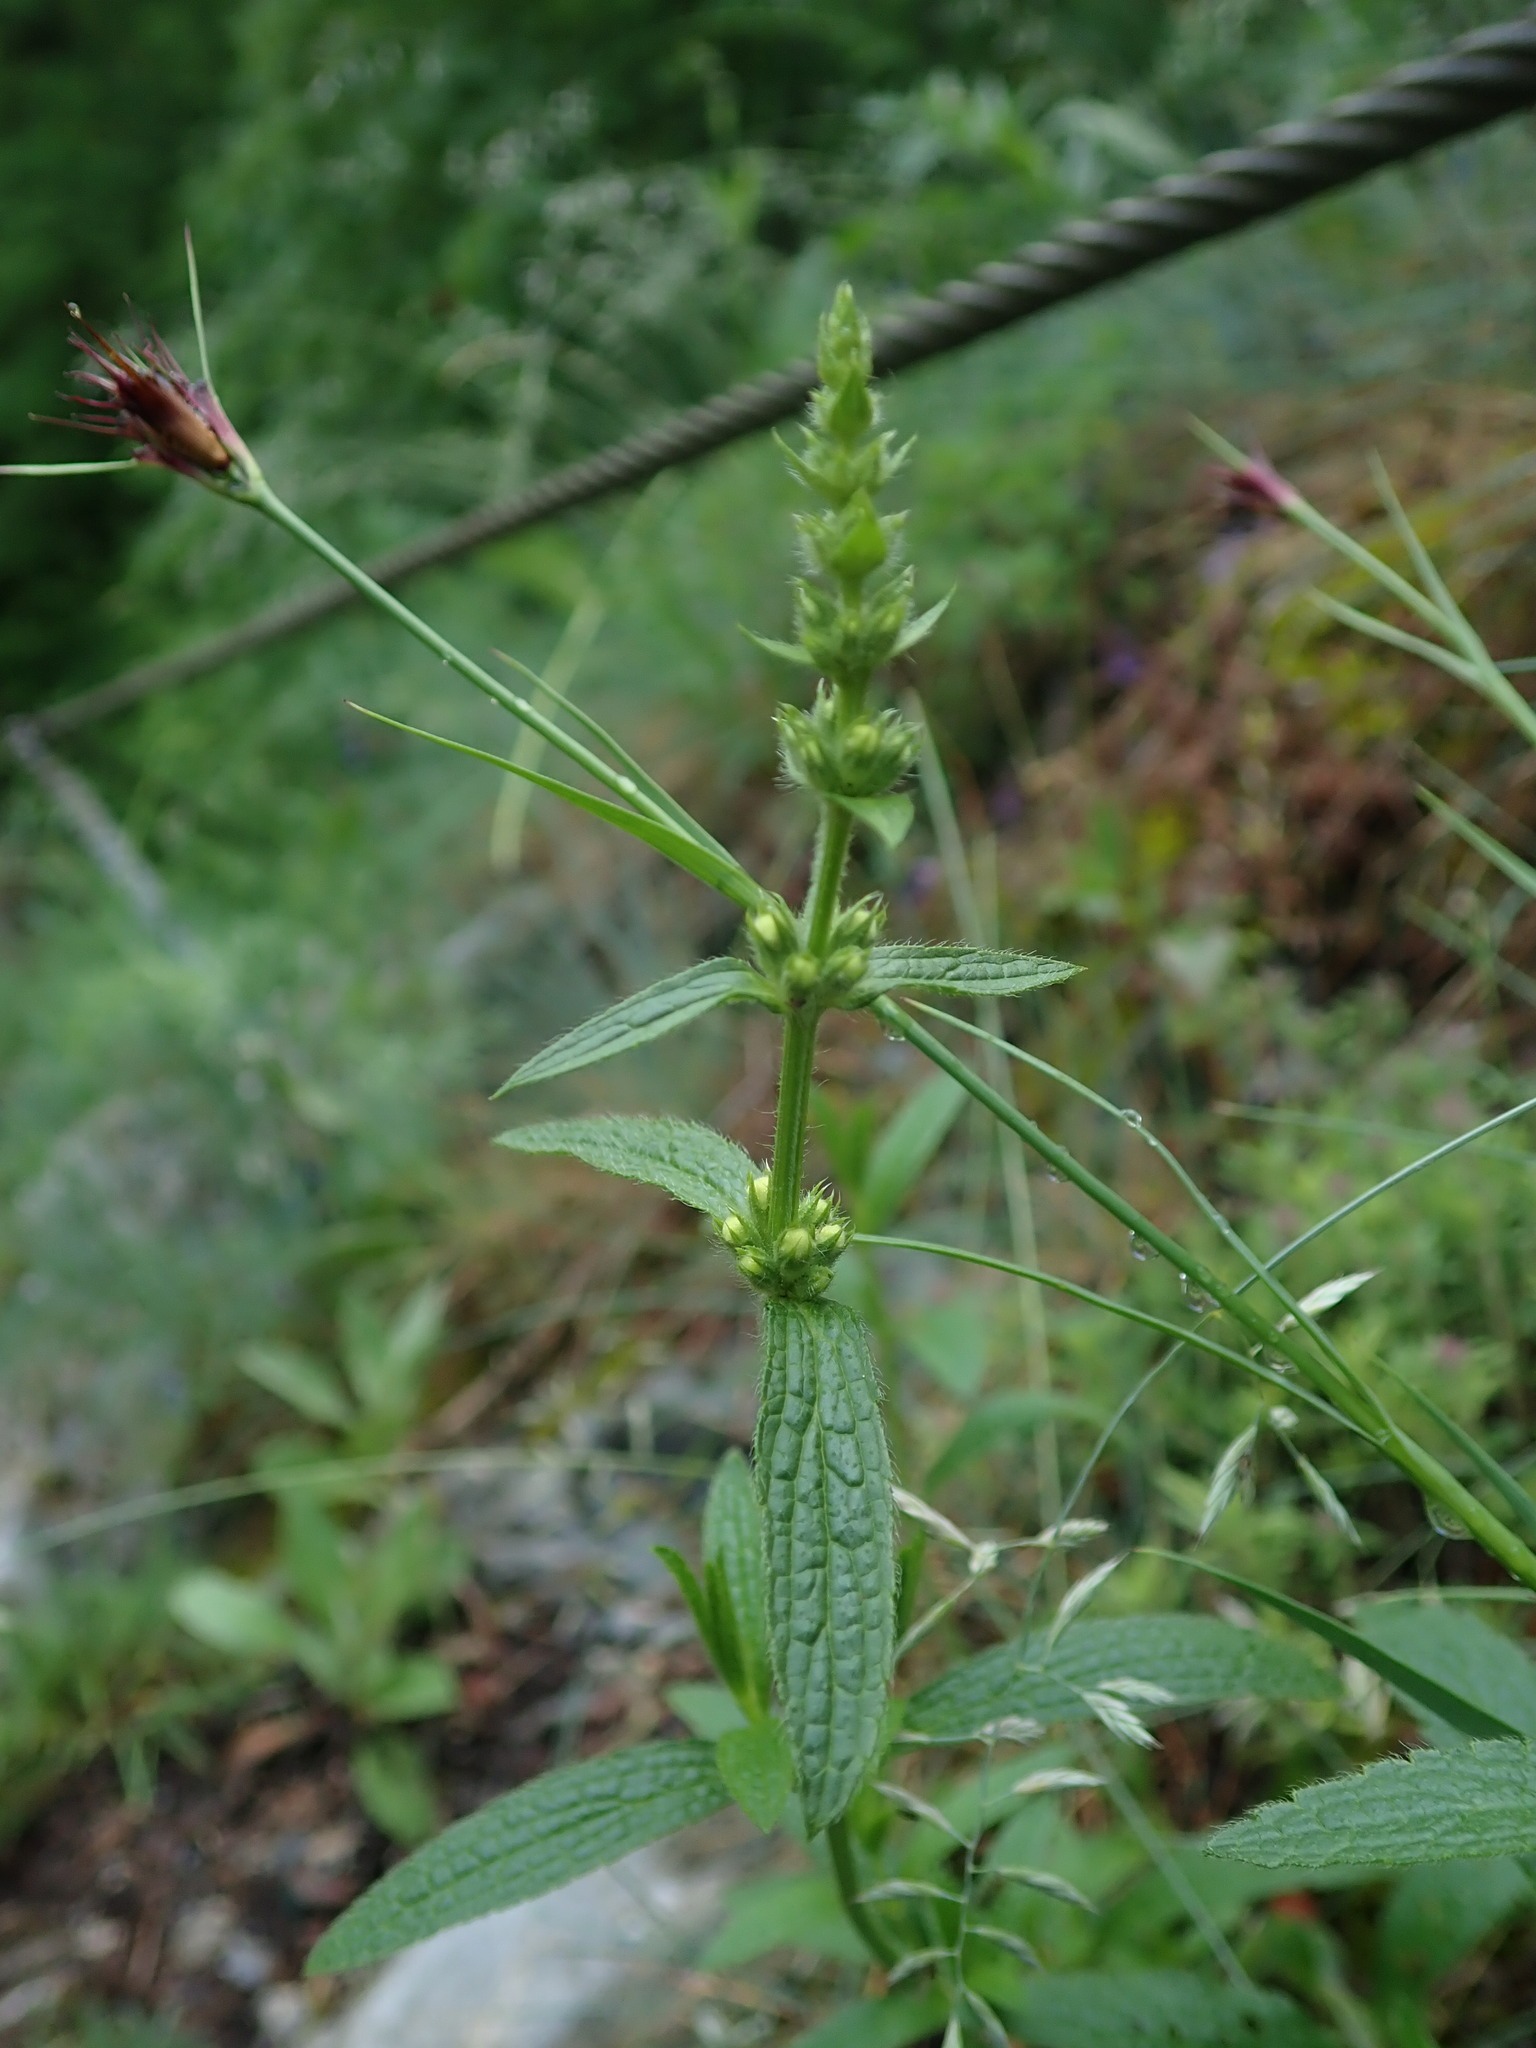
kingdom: Plantae
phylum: Tracheophyta
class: Magnoliopsida
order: Lamiales
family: Lamiaceae
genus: Stachys
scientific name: Stachys recta
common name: Perennial yellow-woundwort
